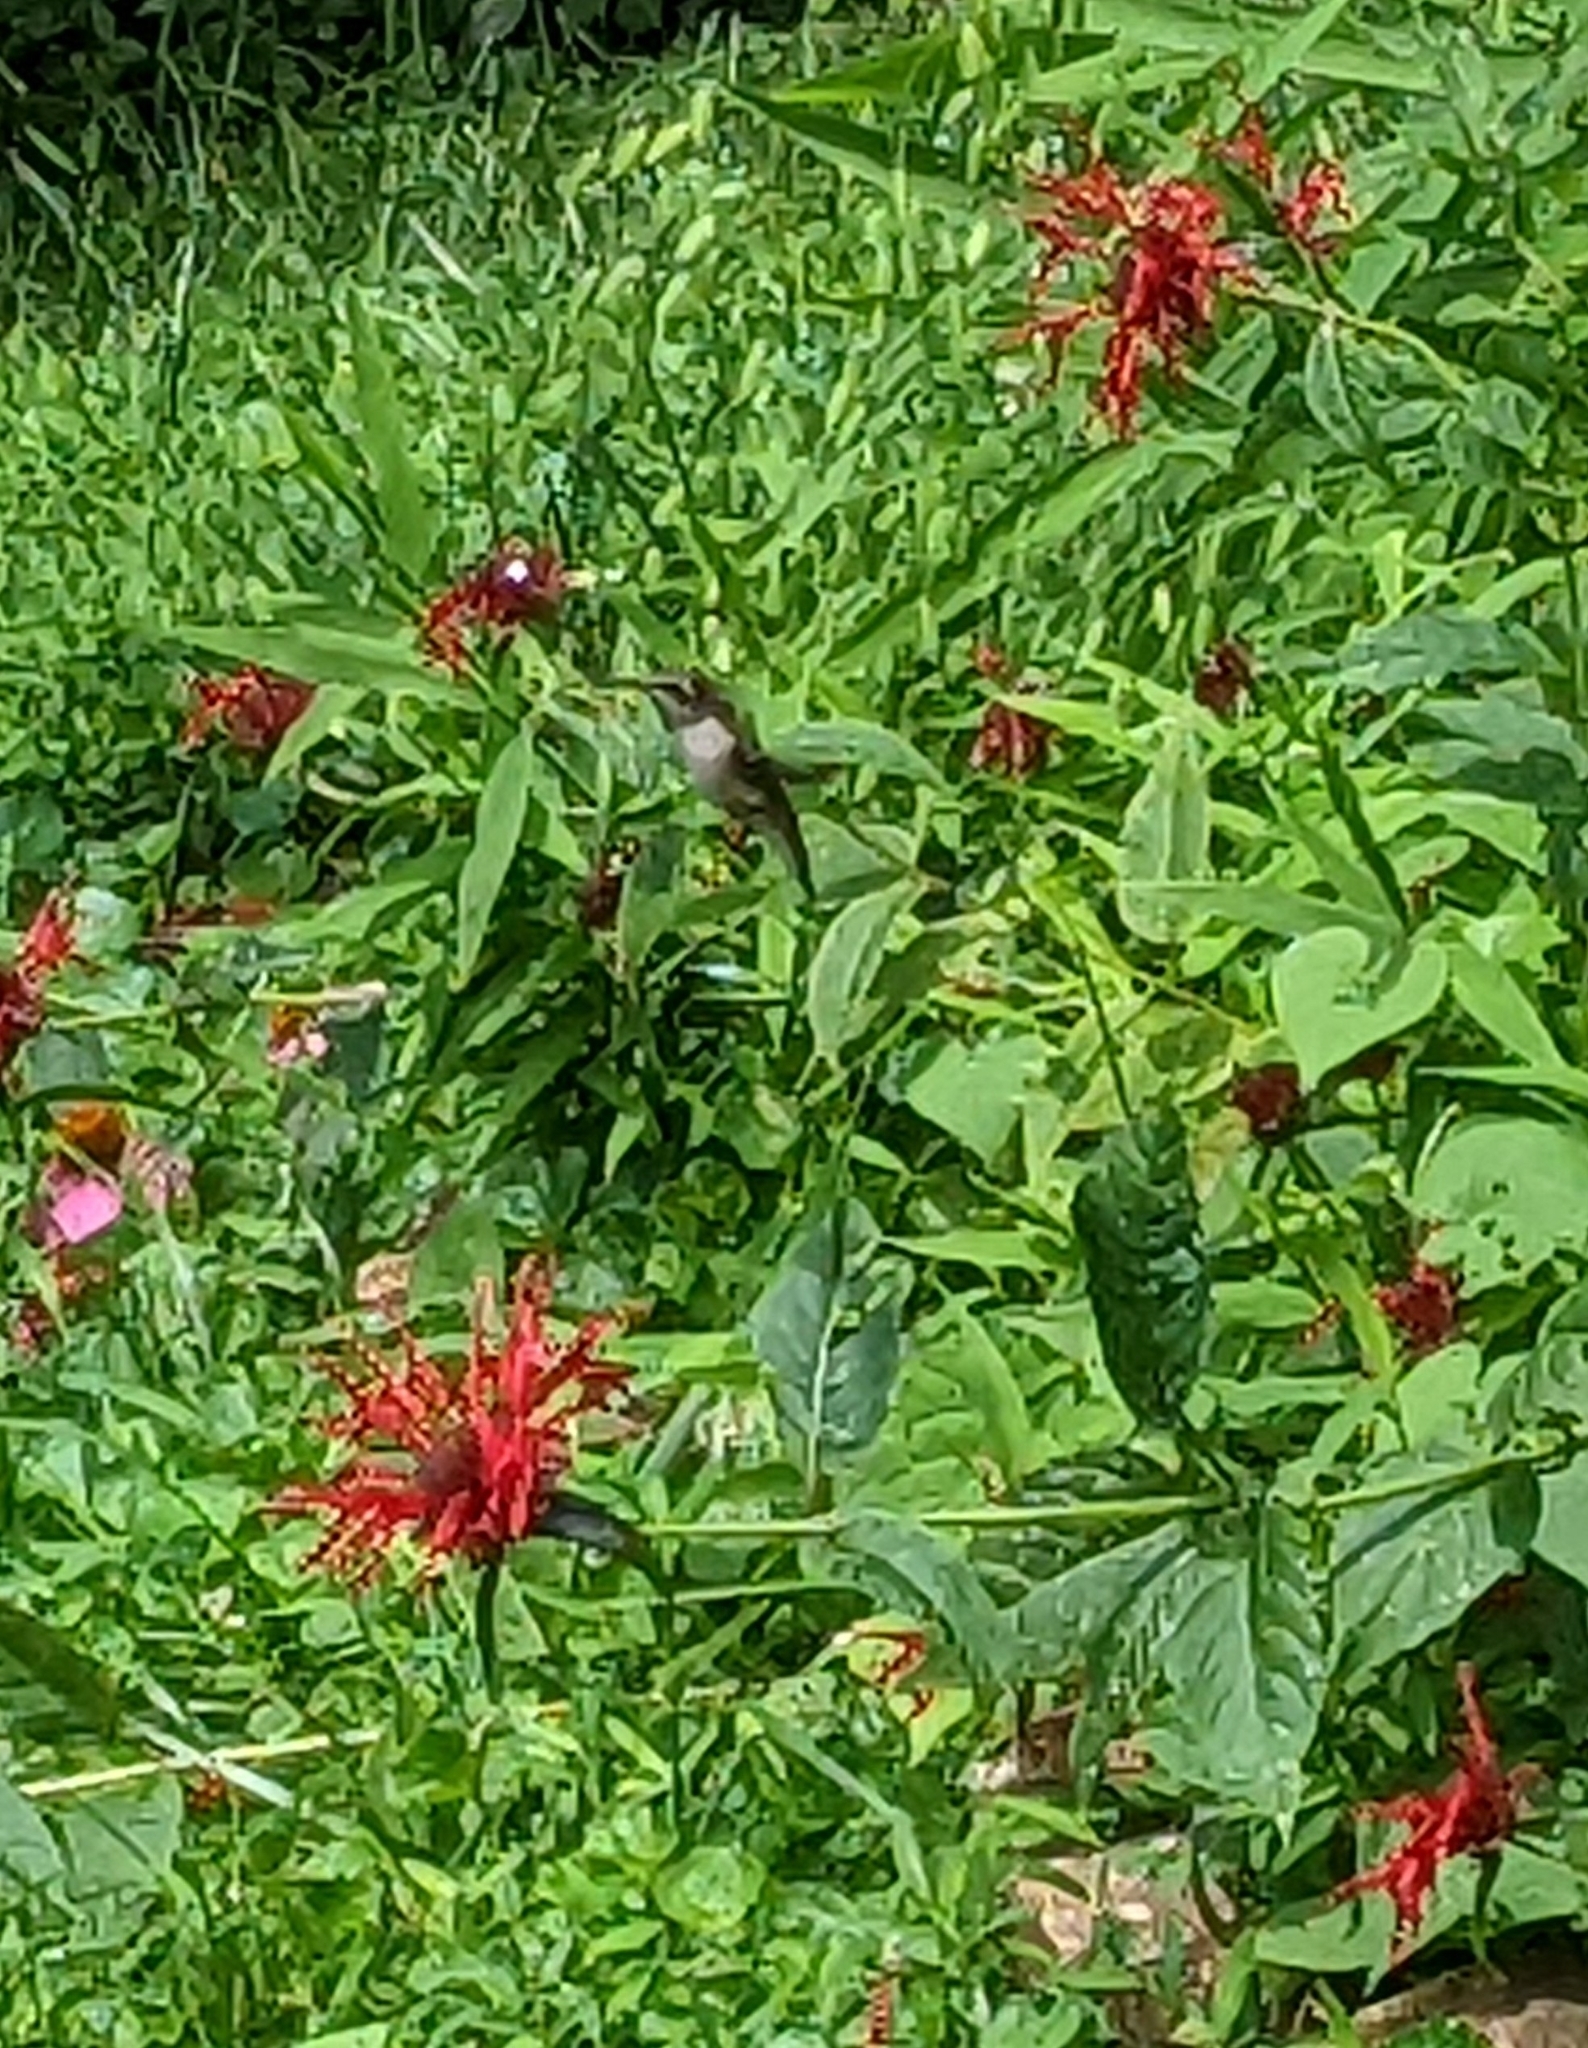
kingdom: Animalia
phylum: Chordata
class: Aves
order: Apodiformes
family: Trochilidae
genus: Archilochus
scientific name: Archilochus colubris
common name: Ruby-throated hummingbird
